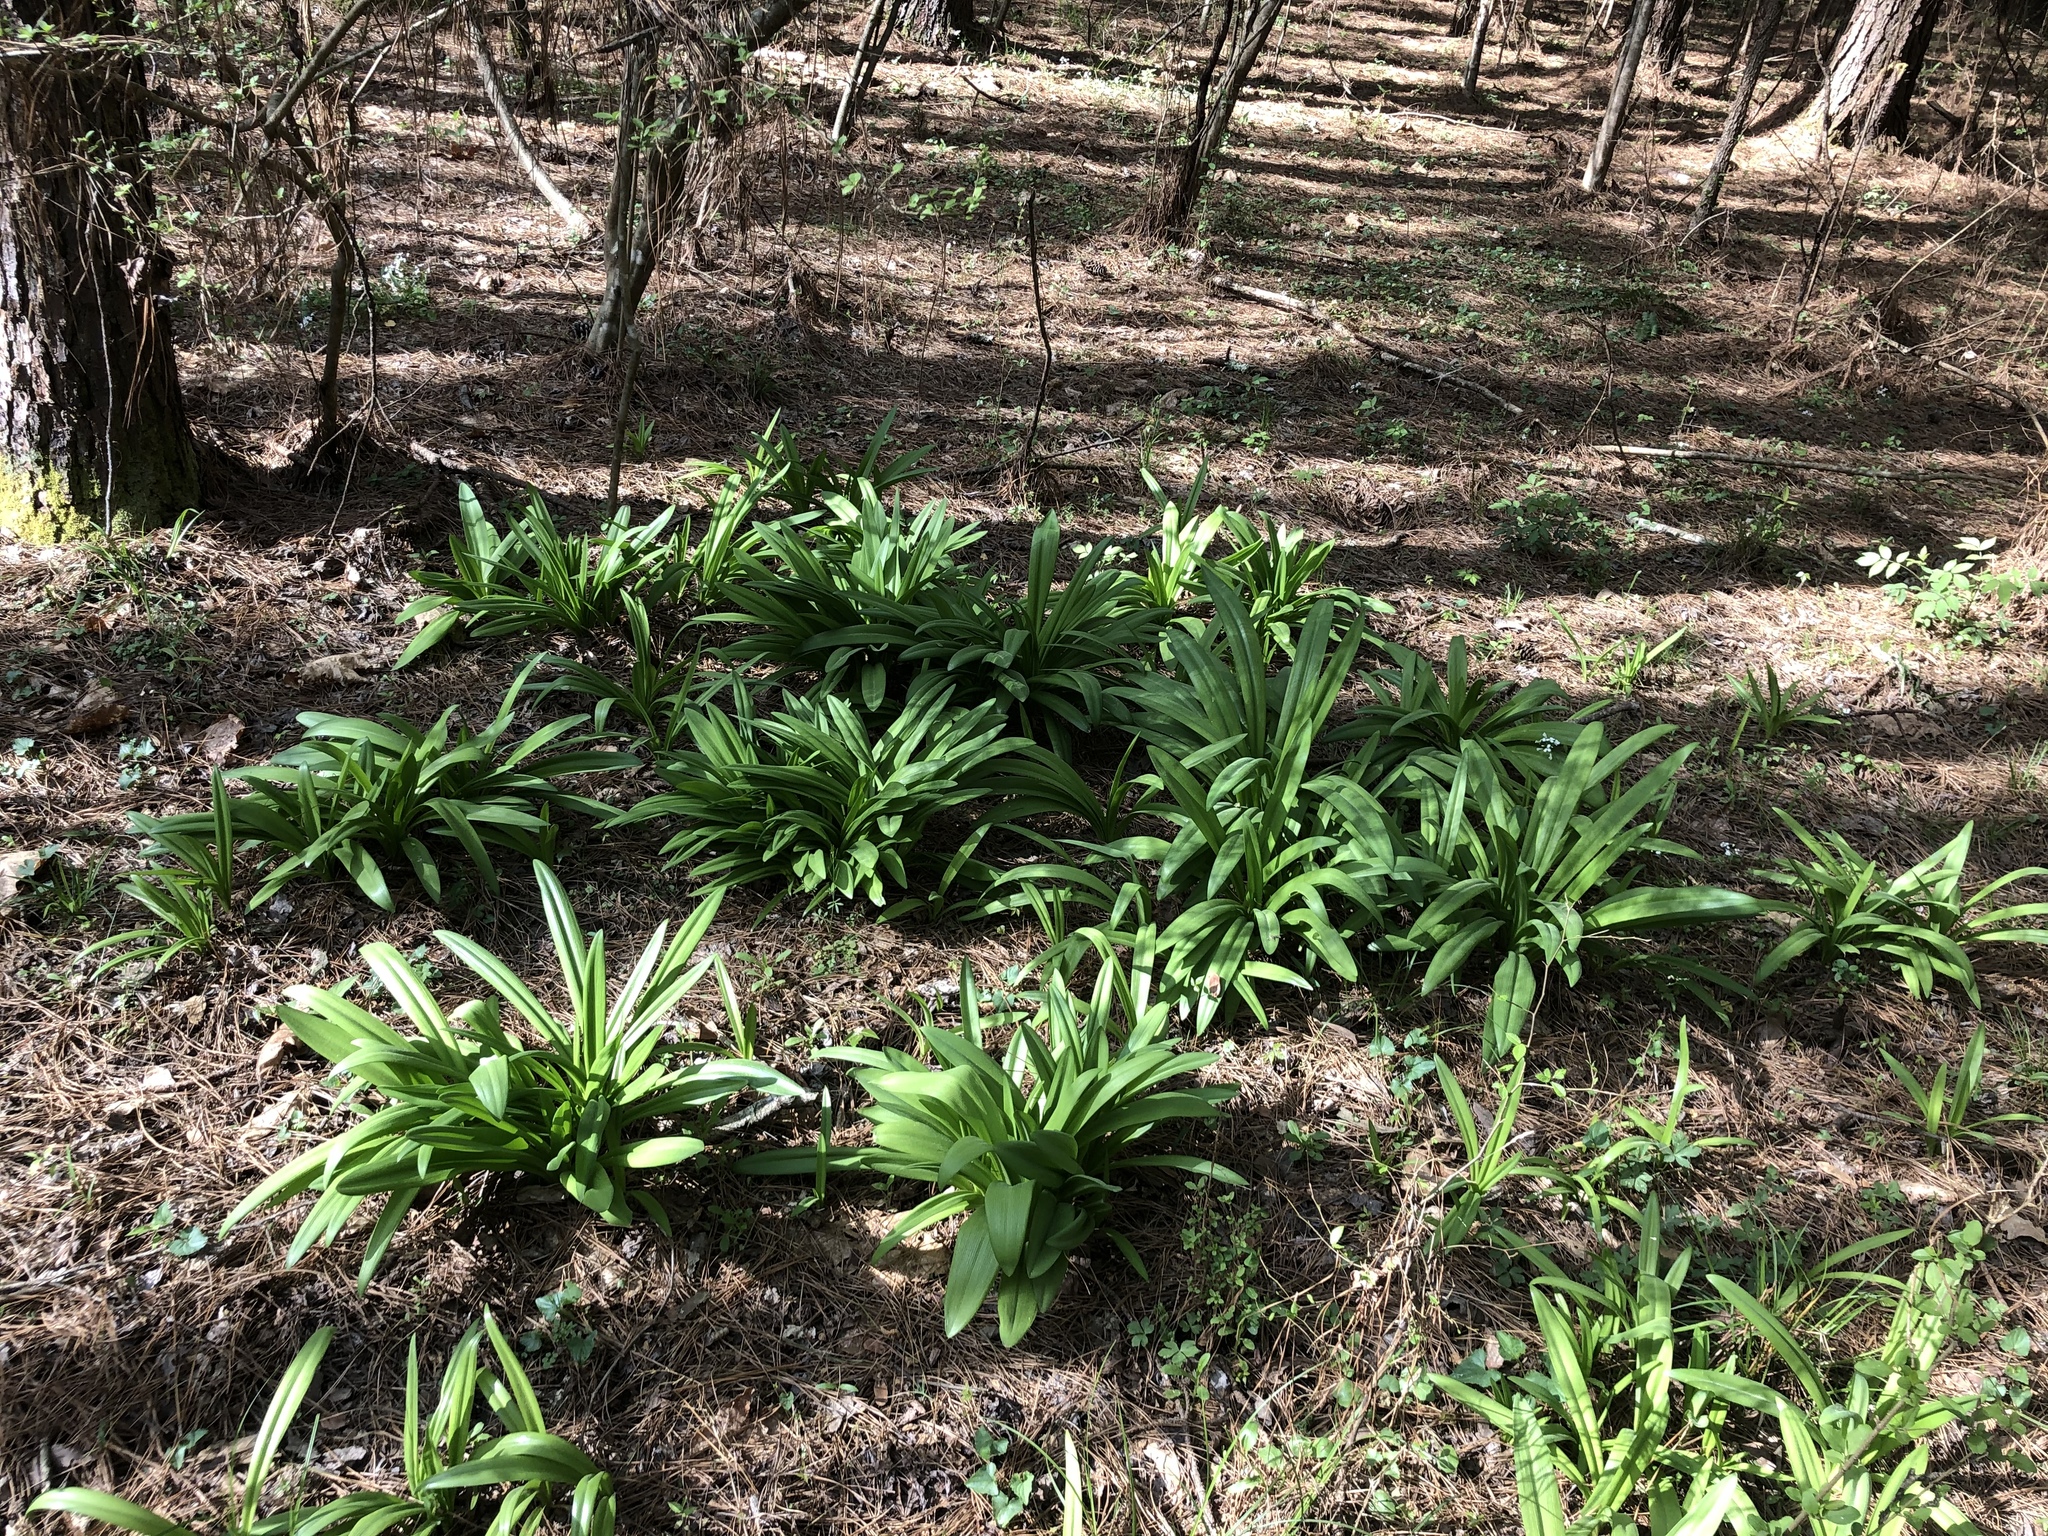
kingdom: Plantae
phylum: Tracheophyta
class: Liliopsida
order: Asparagales
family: Amaryllidaceae
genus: Hymenocallis
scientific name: Hymenocallis occidentalis
